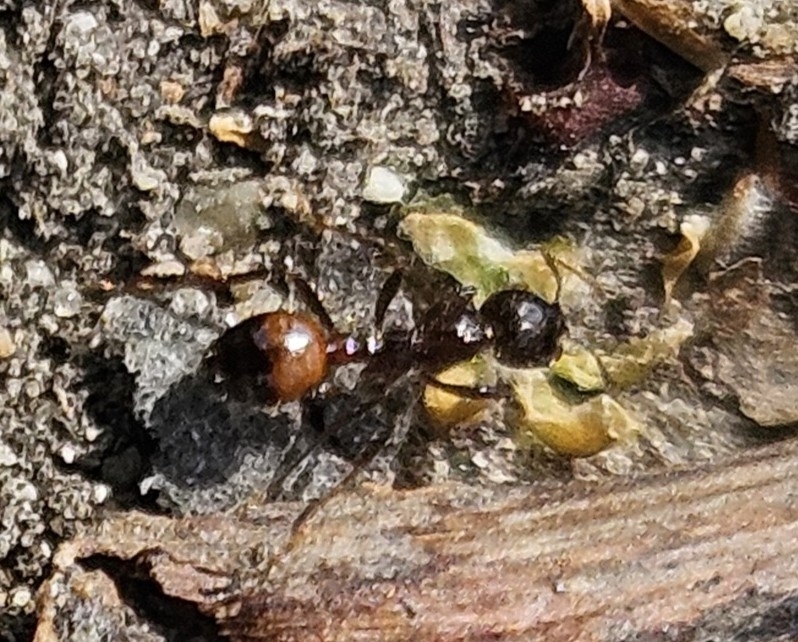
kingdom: Animalia
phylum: Arthropoda
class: Insecta
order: Hymenoptera
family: Formicidae
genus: Solenopsis
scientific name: Solenopsis
